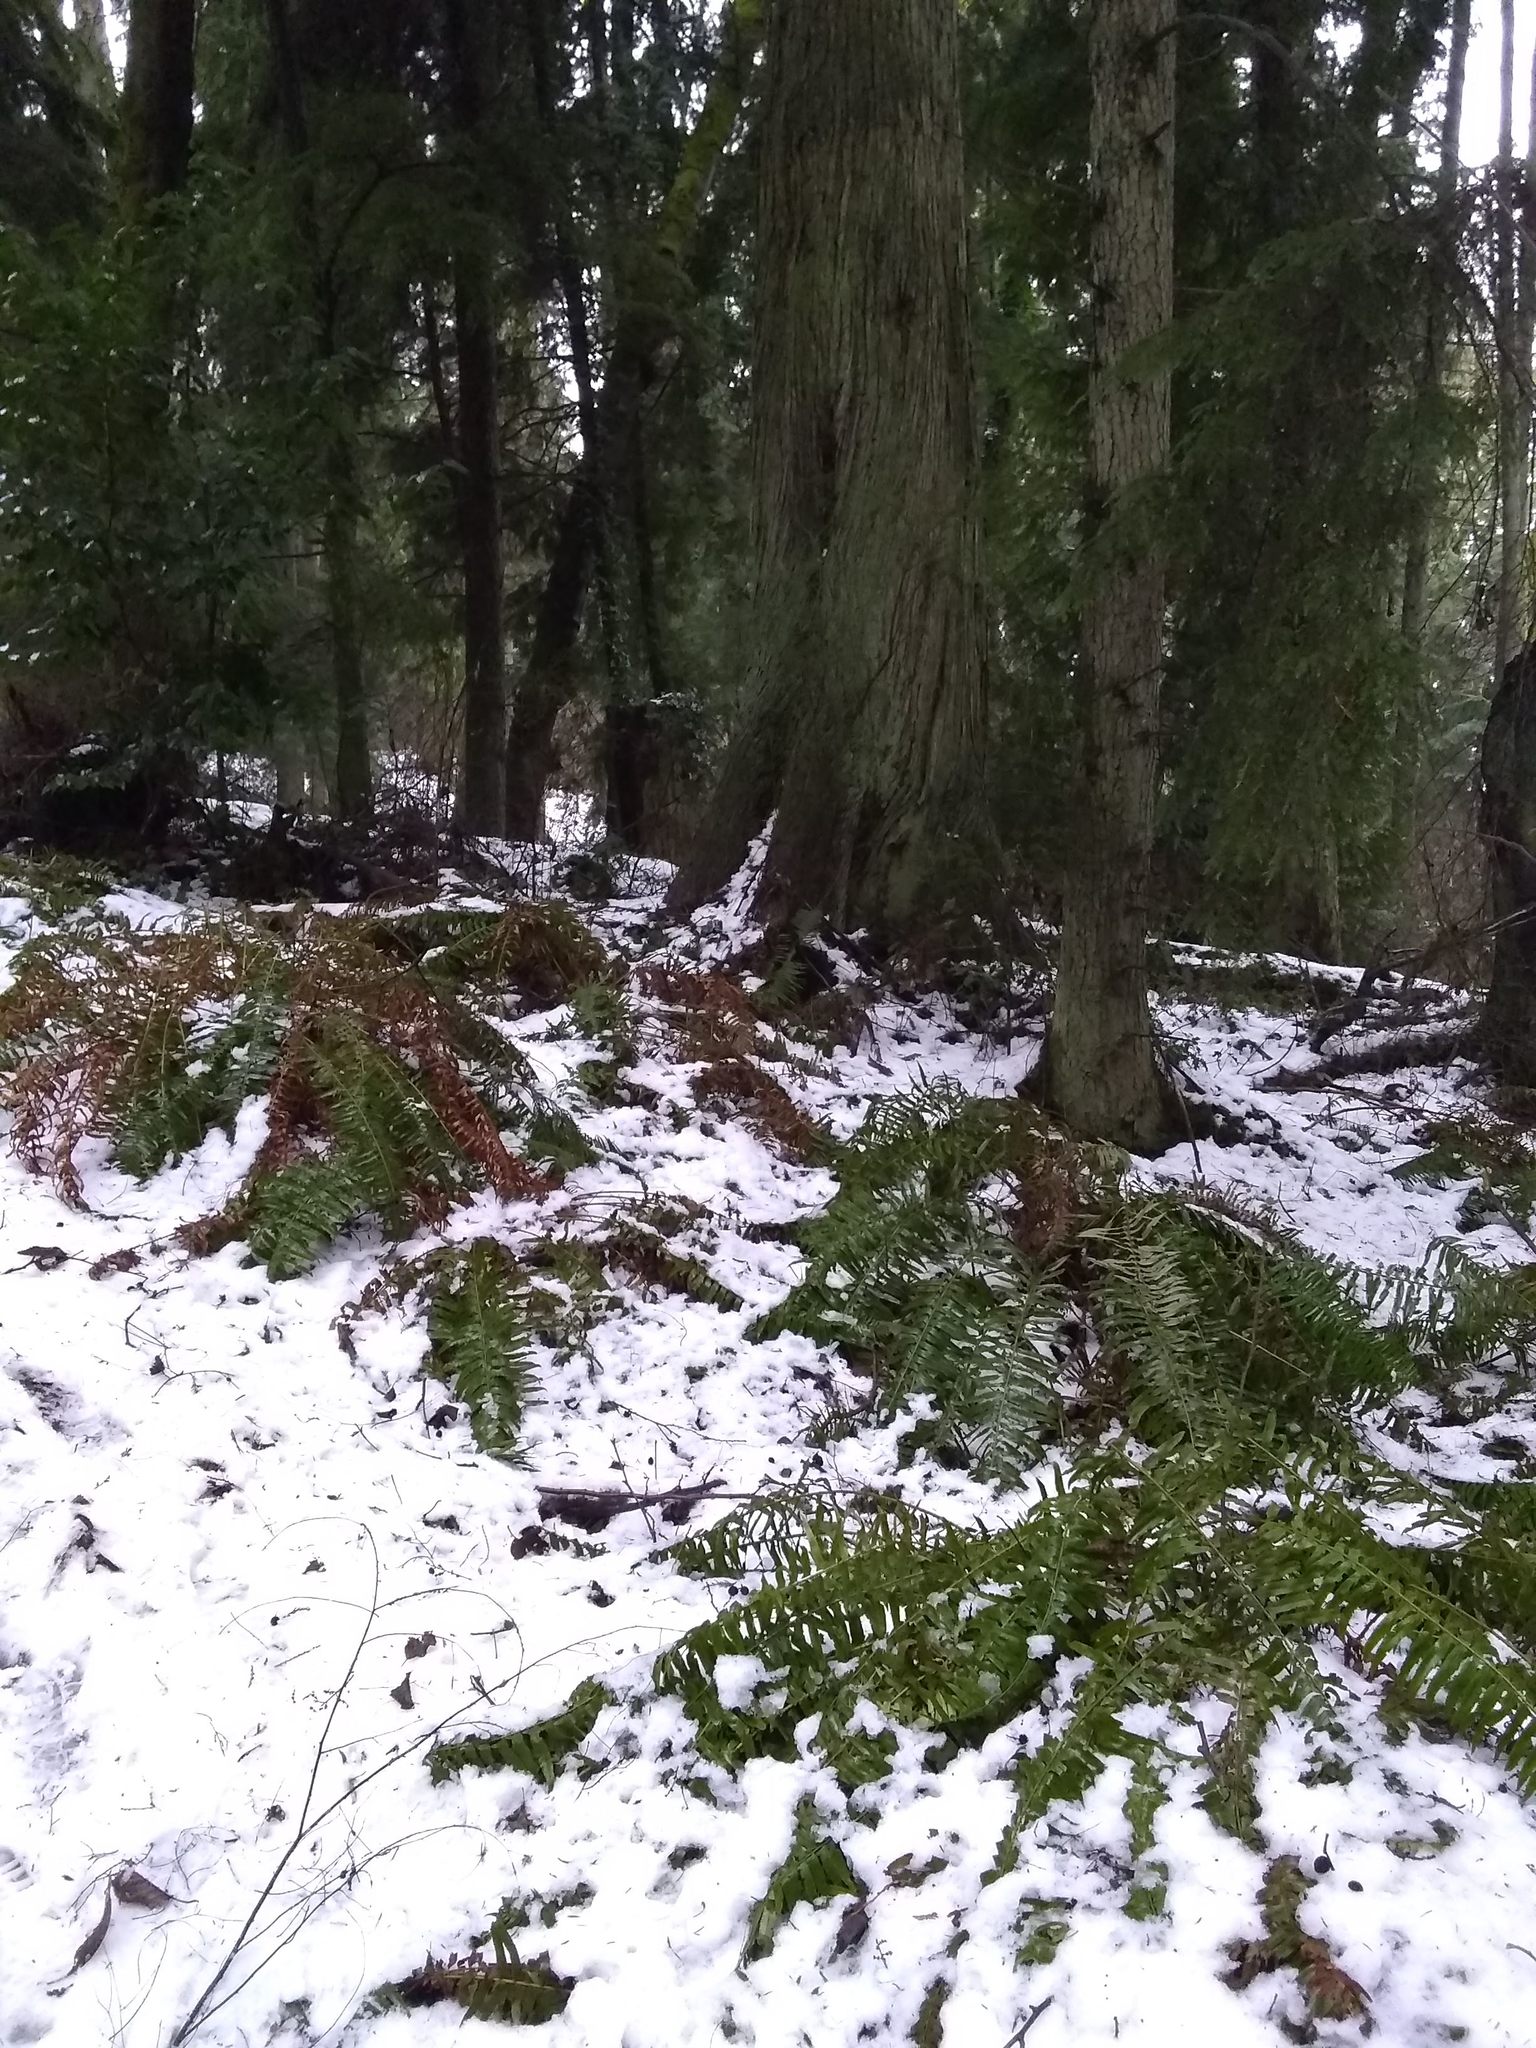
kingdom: Plantae
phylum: Tracheophyta
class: Polypodiopsida
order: Polypodiales
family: Dryopteridaceae
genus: Polystichum
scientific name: Polystichum munitum
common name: Western sword-fern
